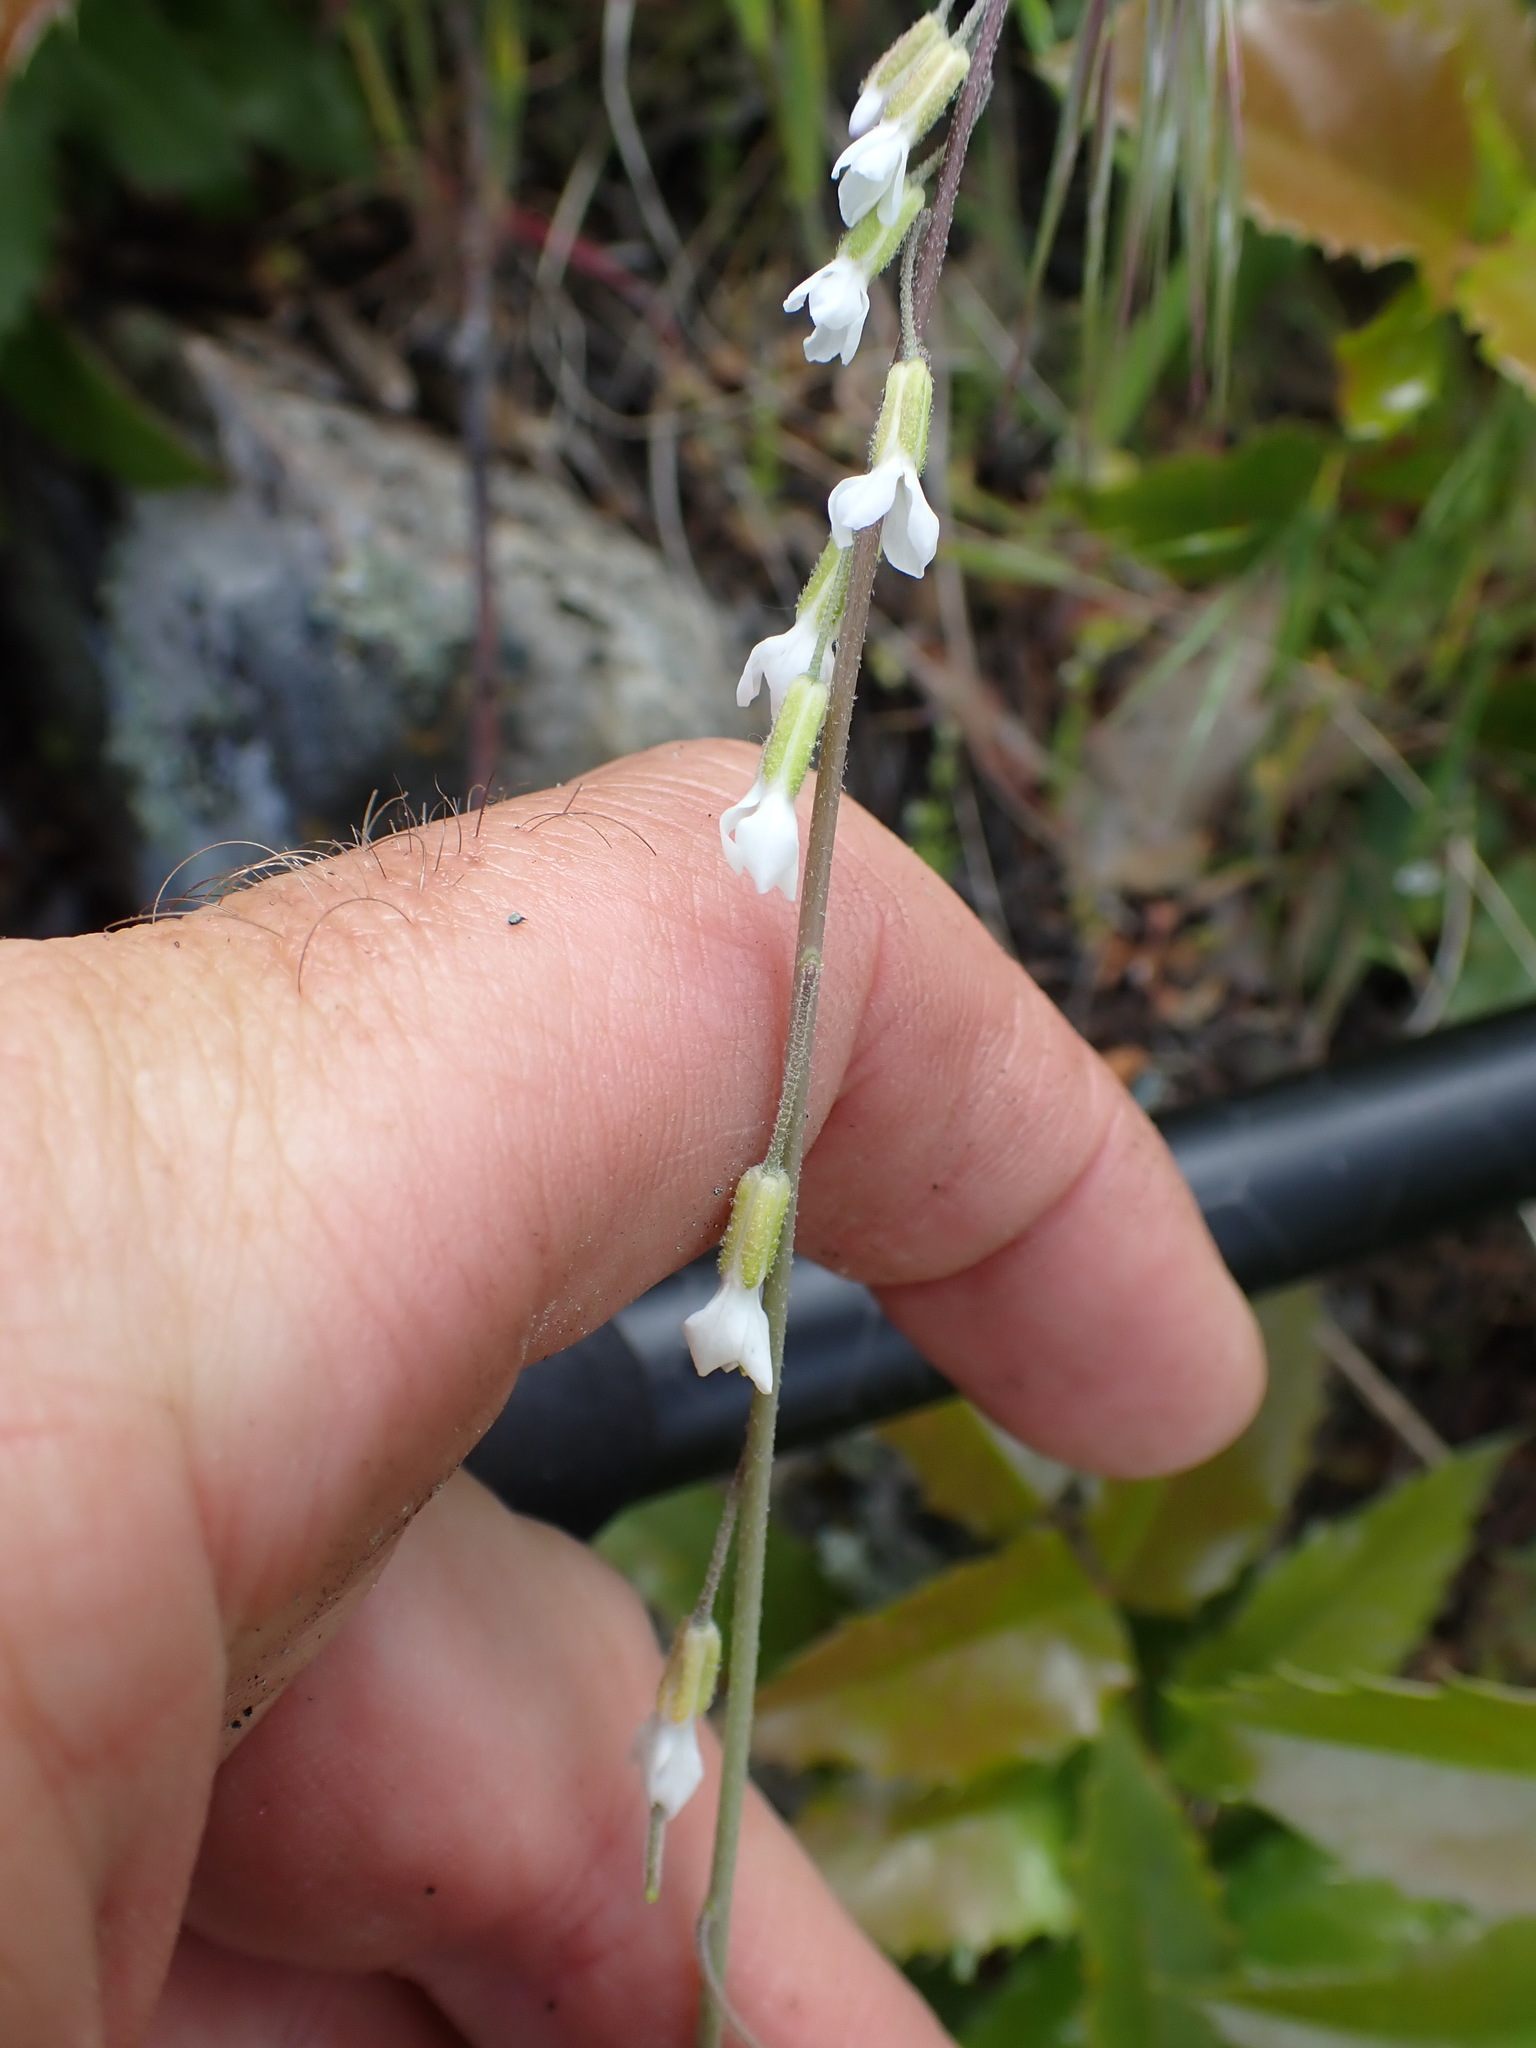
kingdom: Plantae
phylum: Tracheophyta
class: Magnoliopsida
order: Brassicales
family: Brassicaceae
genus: Boechera
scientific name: Boechera retrofracta
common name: Dangling suncress
